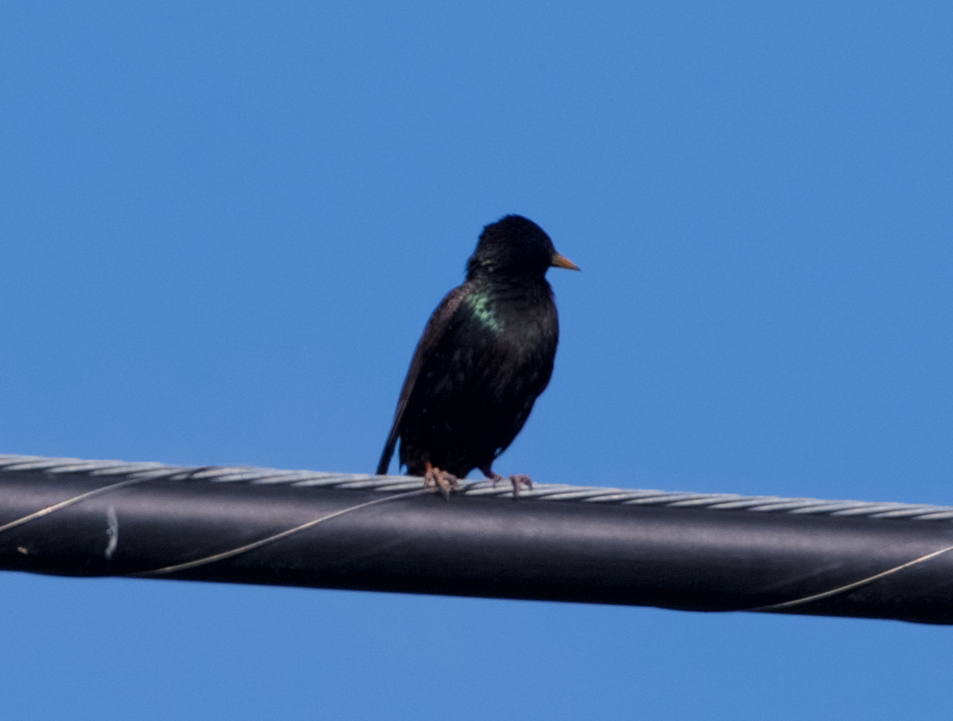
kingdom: Animalia
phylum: Chordata
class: Aves
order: Passeriformes
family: Sturnidae
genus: Sturnus
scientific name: Sturnus vulgaris
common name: Common starling
